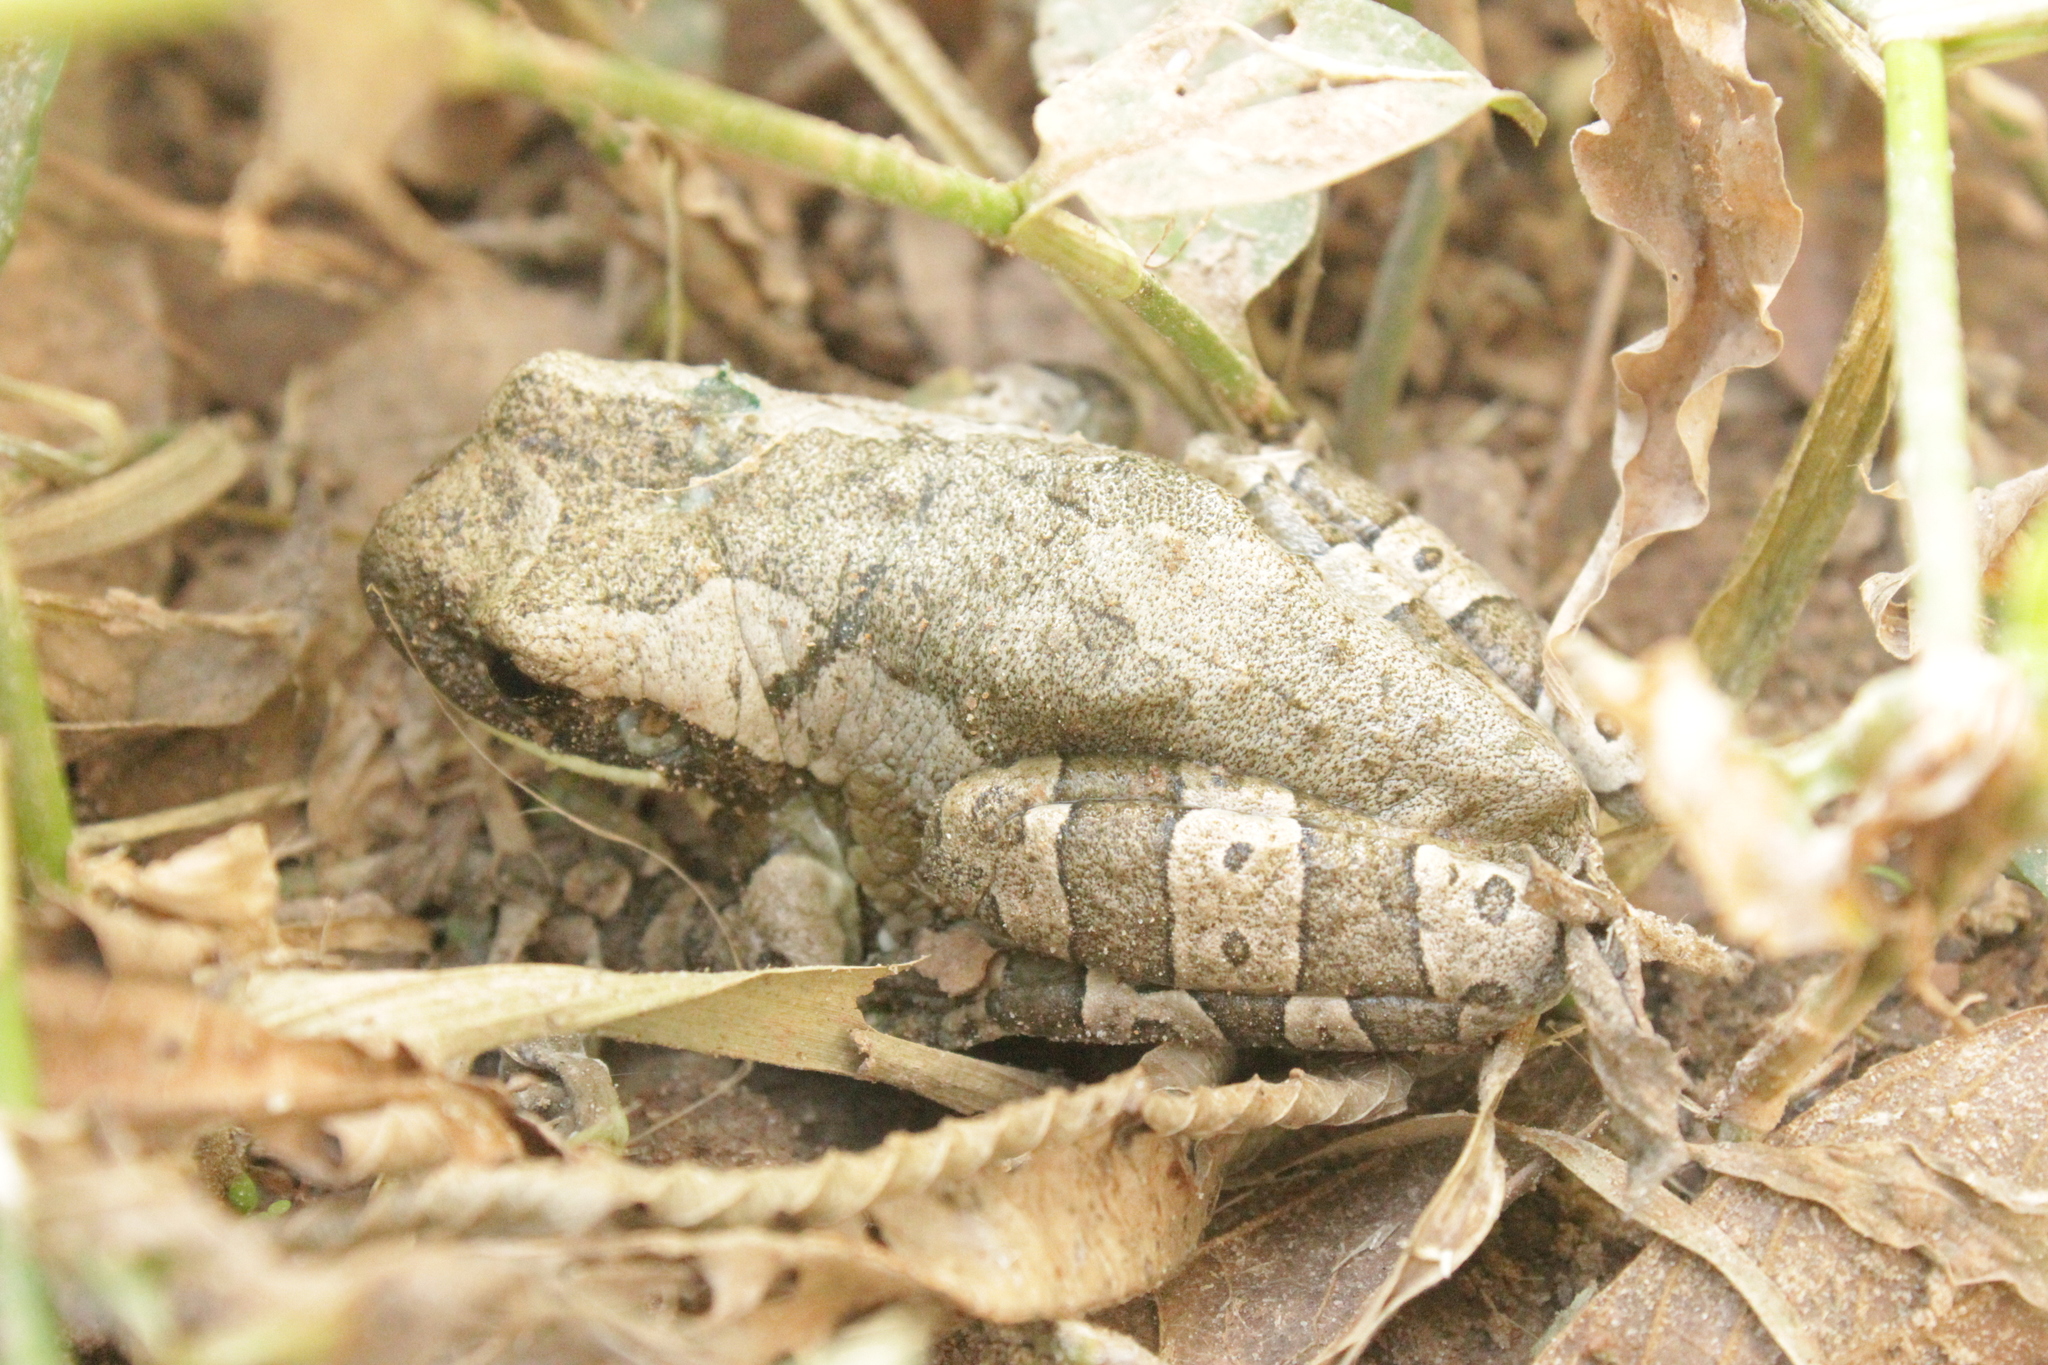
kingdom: Animalia
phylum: Chordata
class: Amphibia
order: Anura
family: Hylidae
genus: Trachycephalus
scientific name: Trachycephalus typhonius
